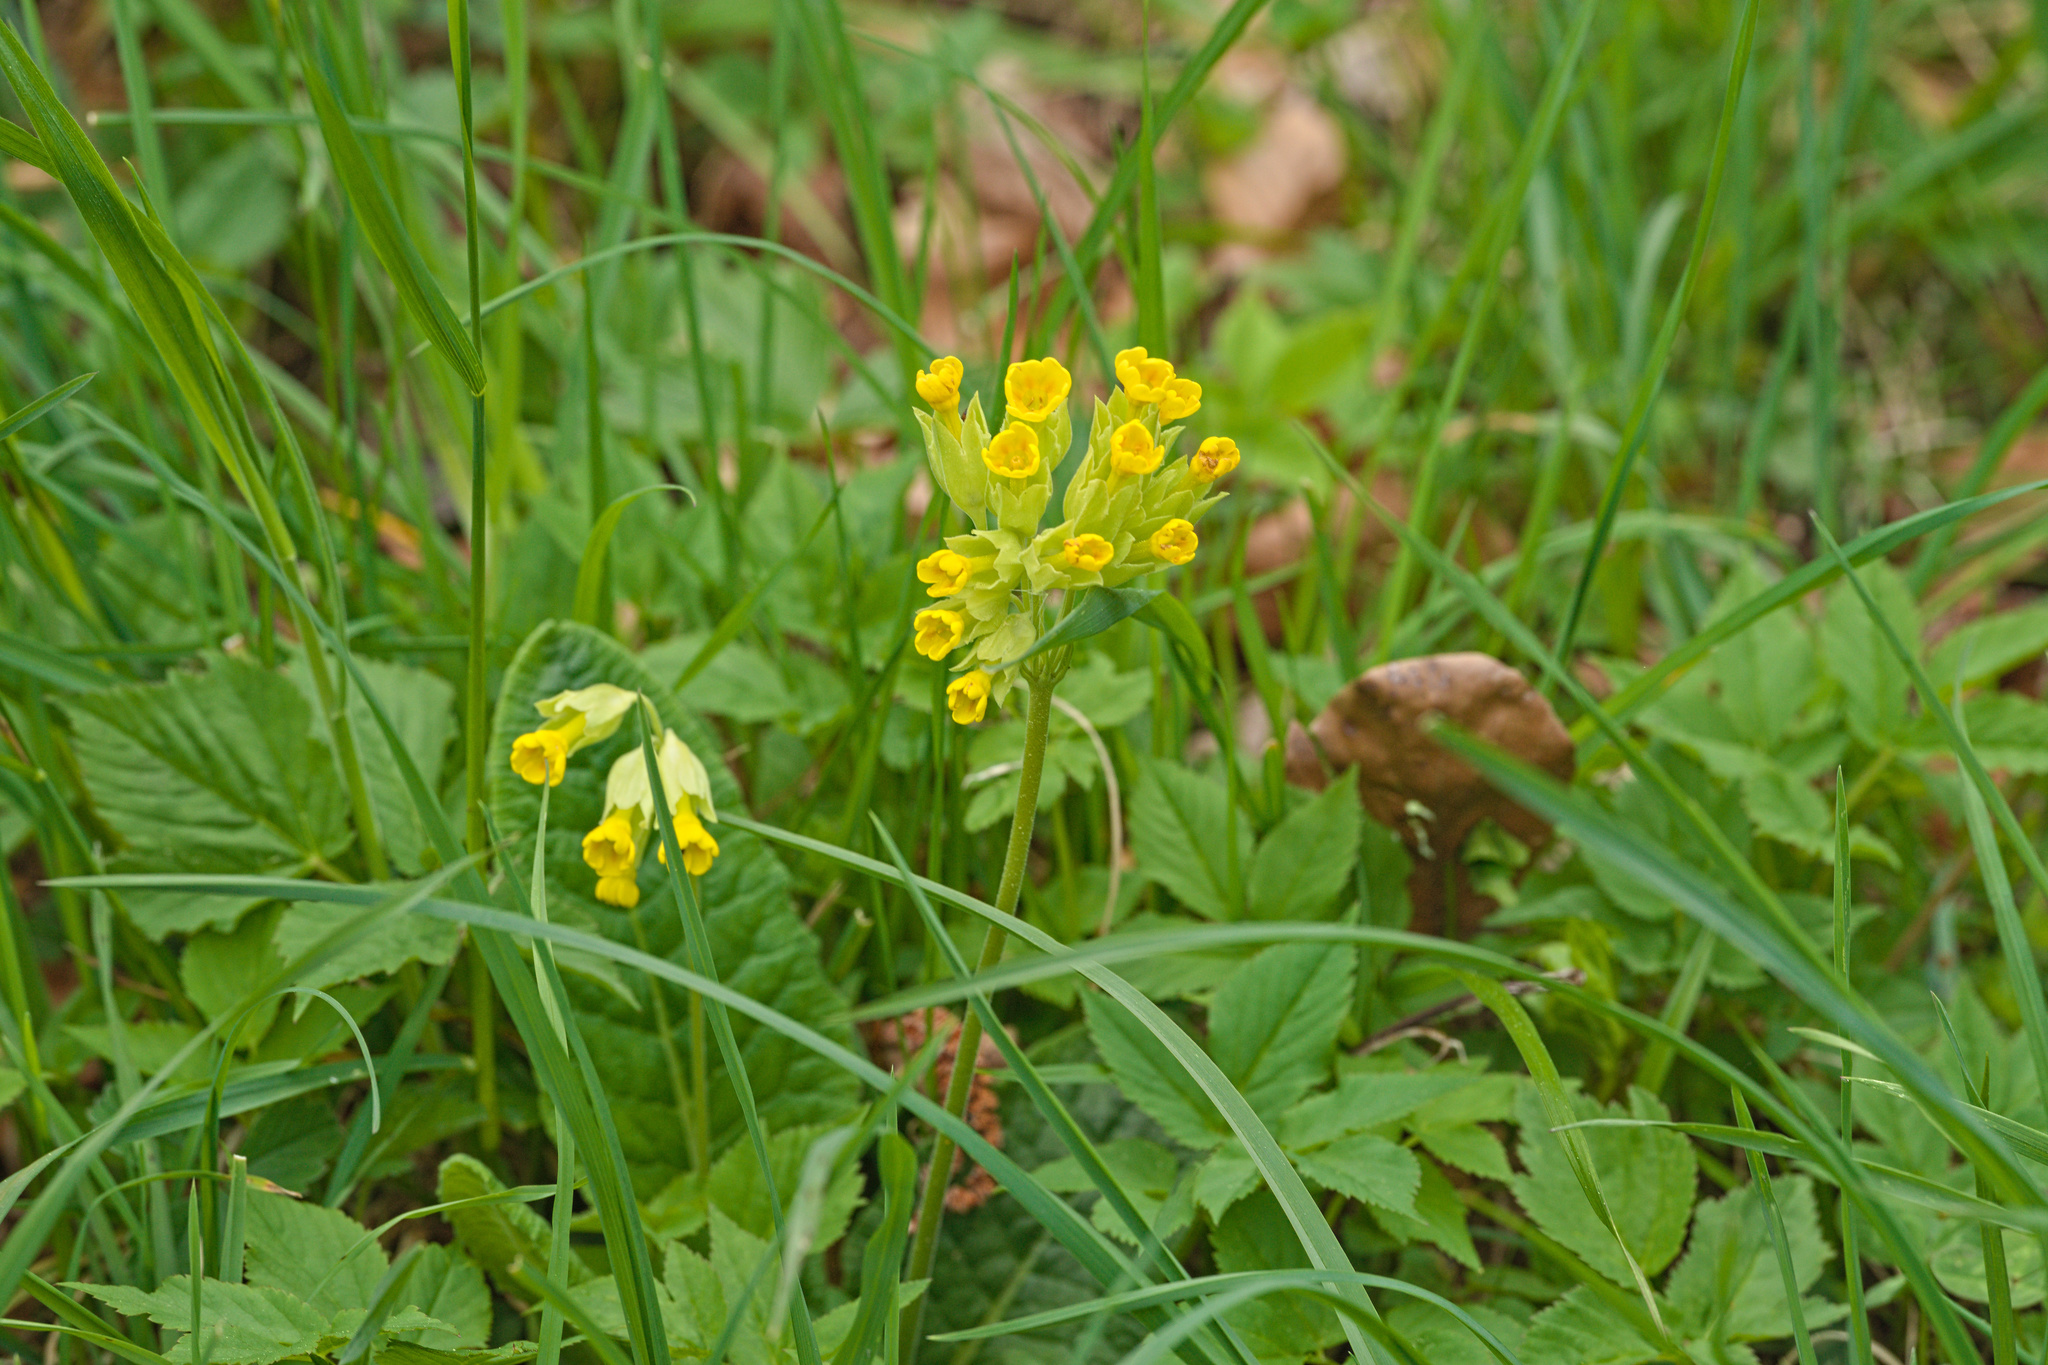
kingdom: Plantae
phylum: Tracheophyta
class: Magnoliopsida
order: Ericales
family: Primulaceae
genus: Primula
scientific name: Primula veris
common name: Cowslip
